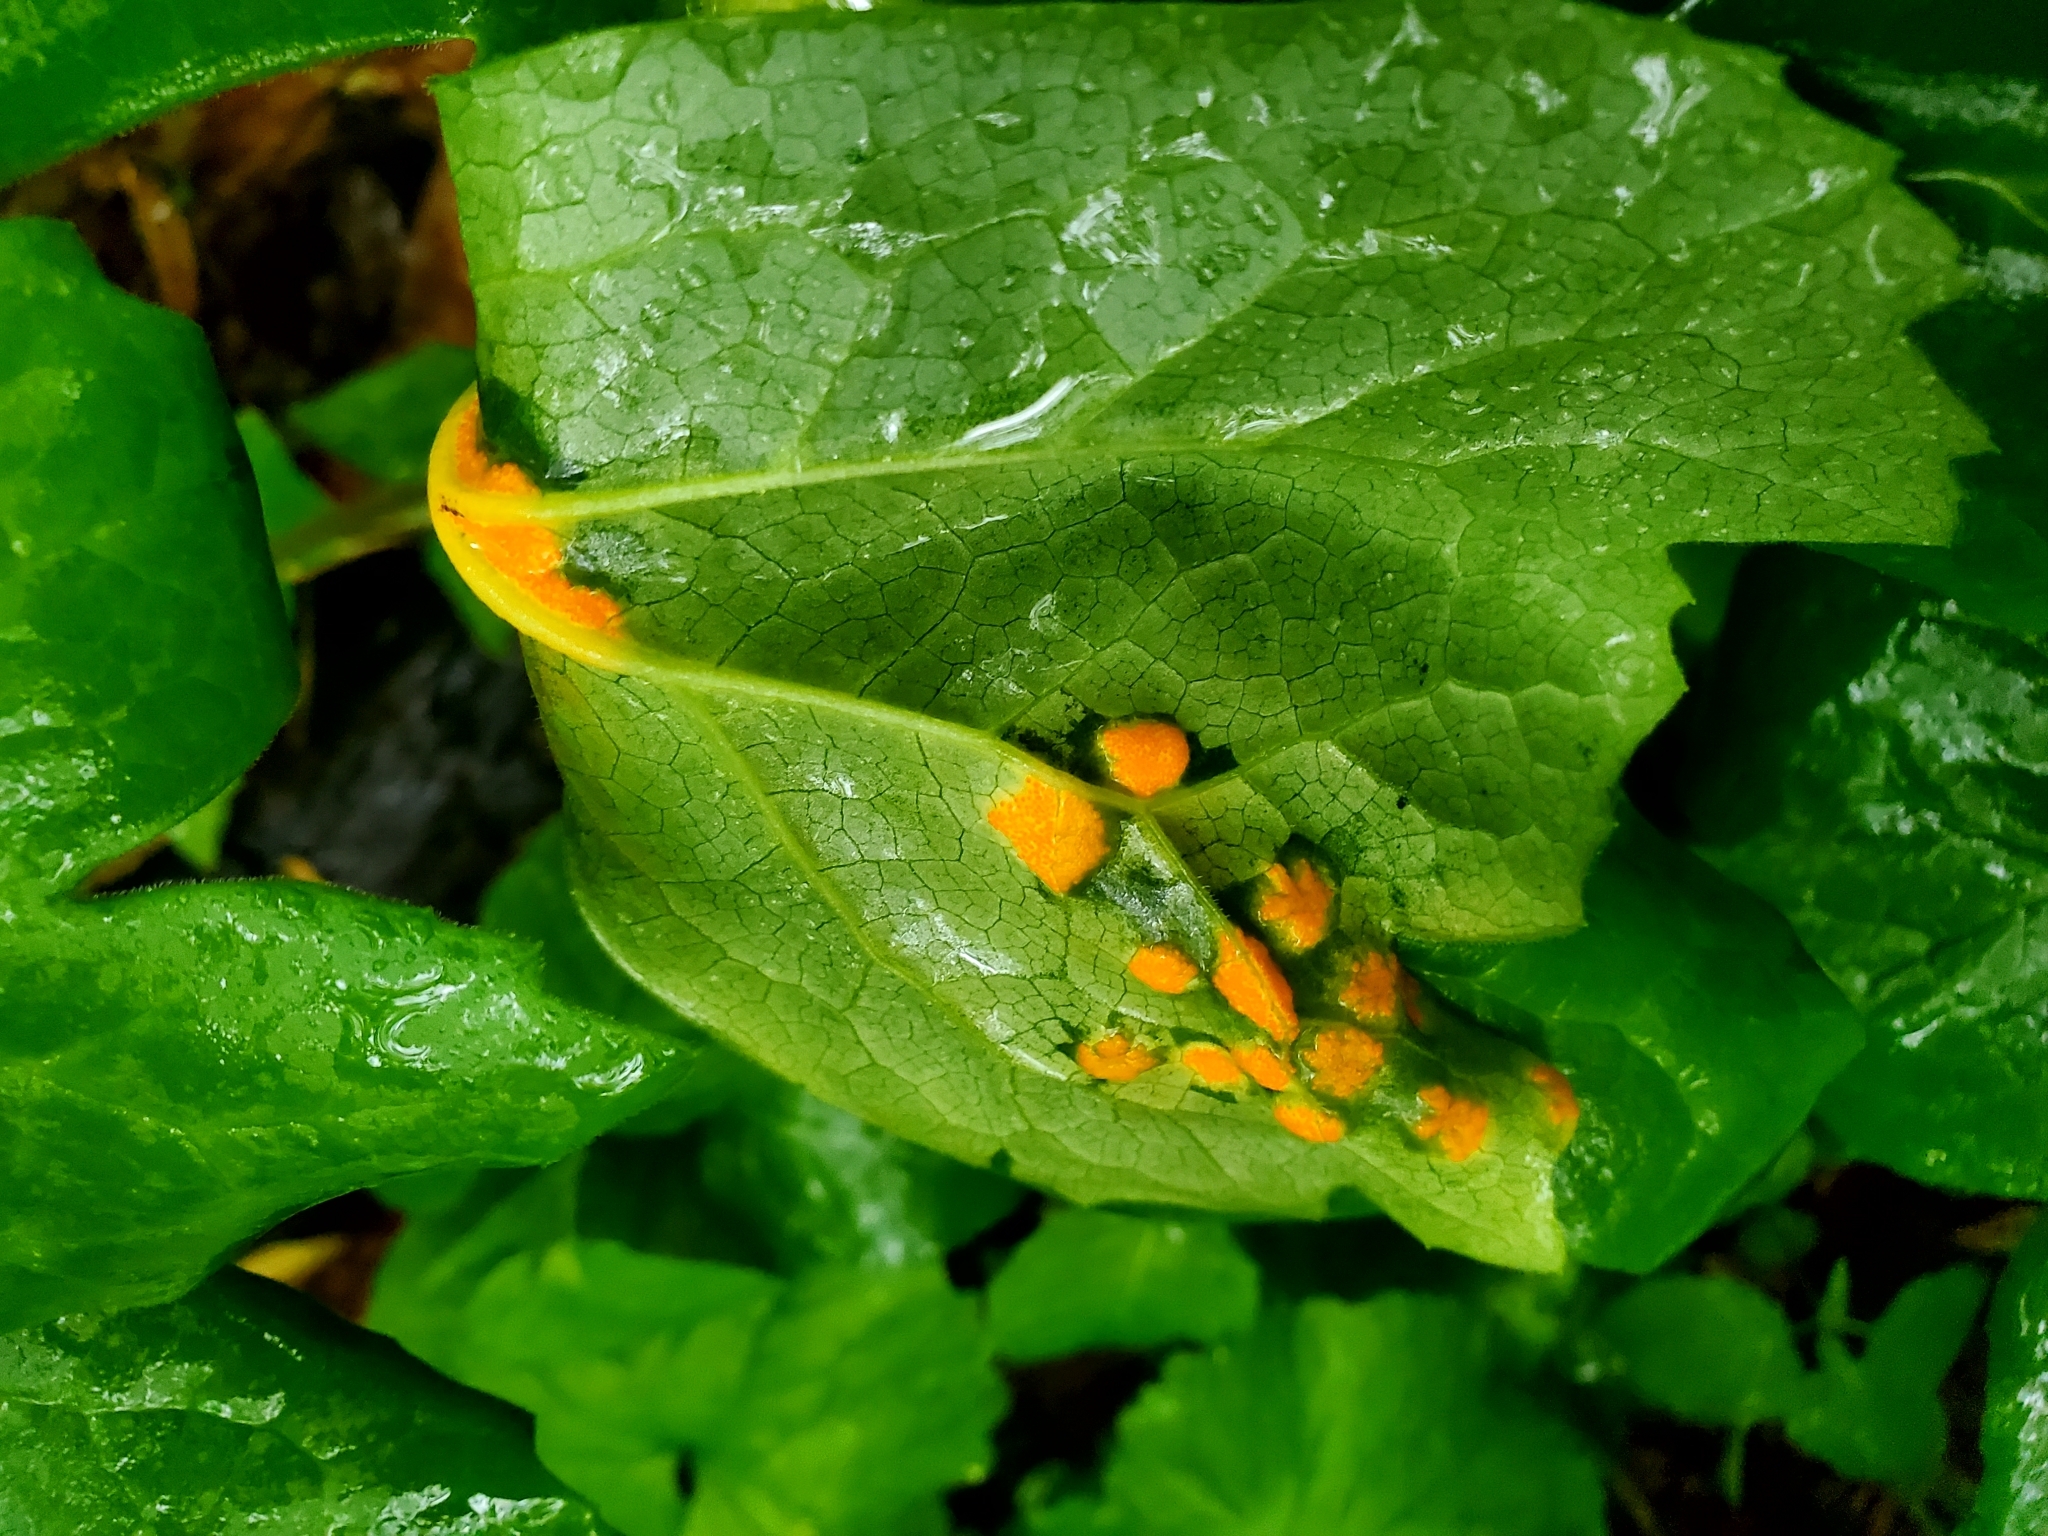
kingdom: Fungi
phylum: Basidiomycota
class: Pucciniomycetes
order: Pucciniales
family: Pucciniaceae
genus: Puccinia
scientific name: Puccinia podophylli
